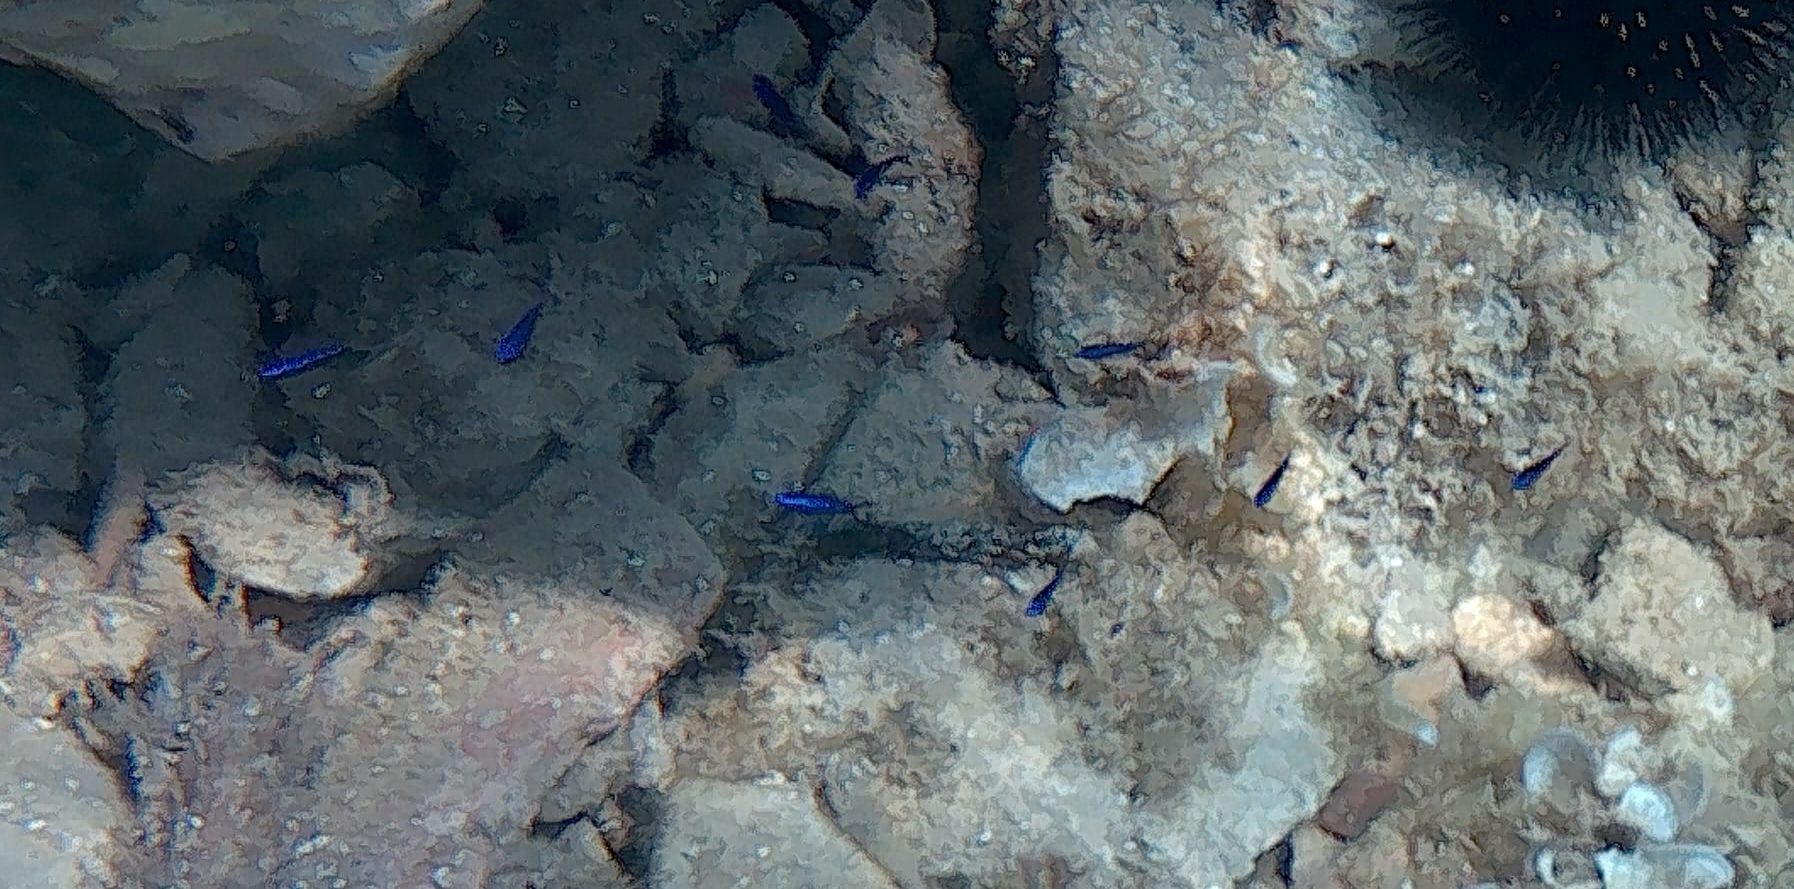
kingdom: Animalia
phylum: Chordata
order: Perciformes
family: Pomacentridae
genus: Chromis
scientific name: Chromis chromis
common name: Damselfish
